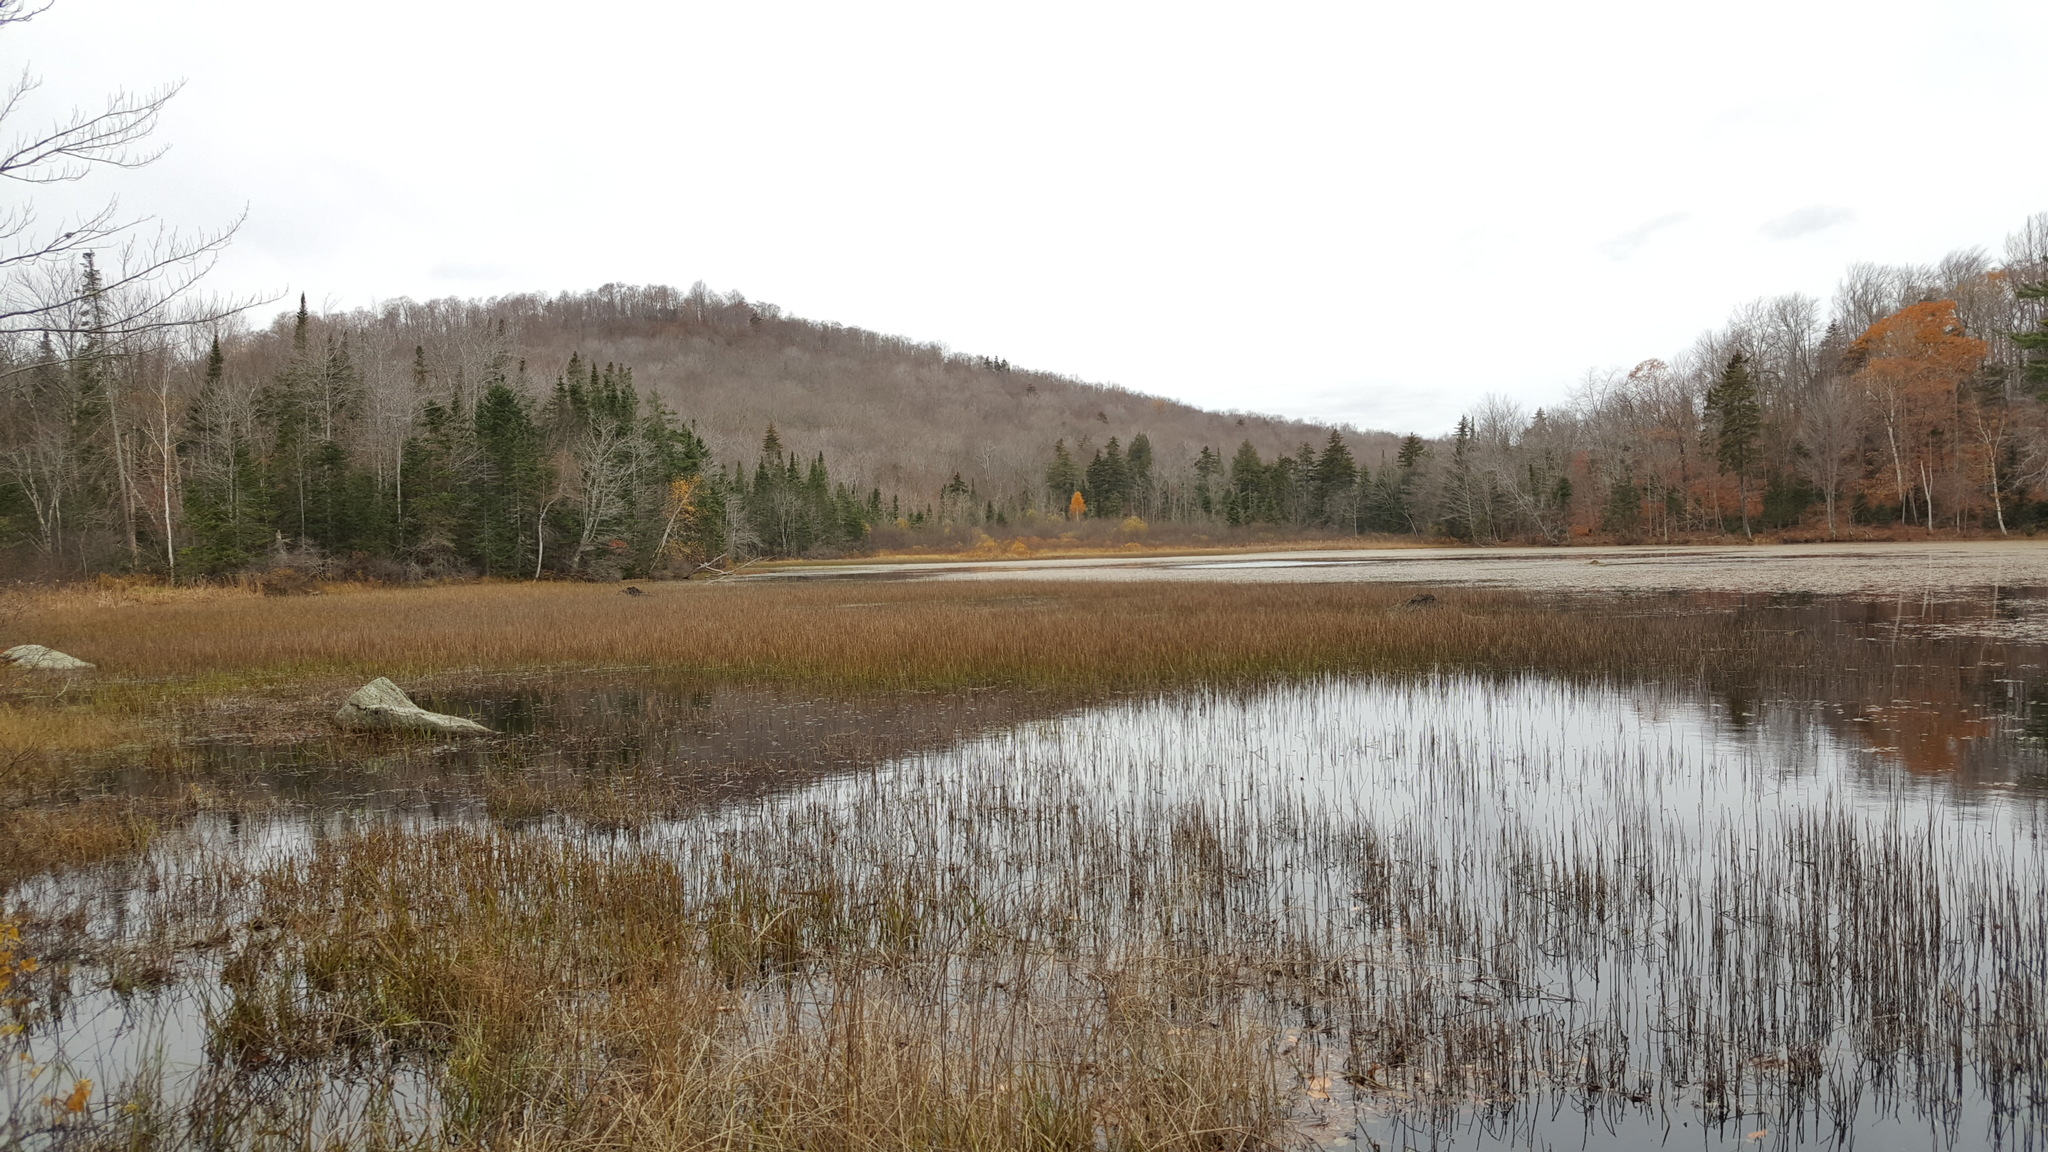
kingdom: Plantae
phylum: Tracheophyta
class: Polypodiopsida
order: Equisetales
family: Equisetaceae
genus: Equisetum
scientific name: Equisetum fluviatile
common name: Water horsetail
